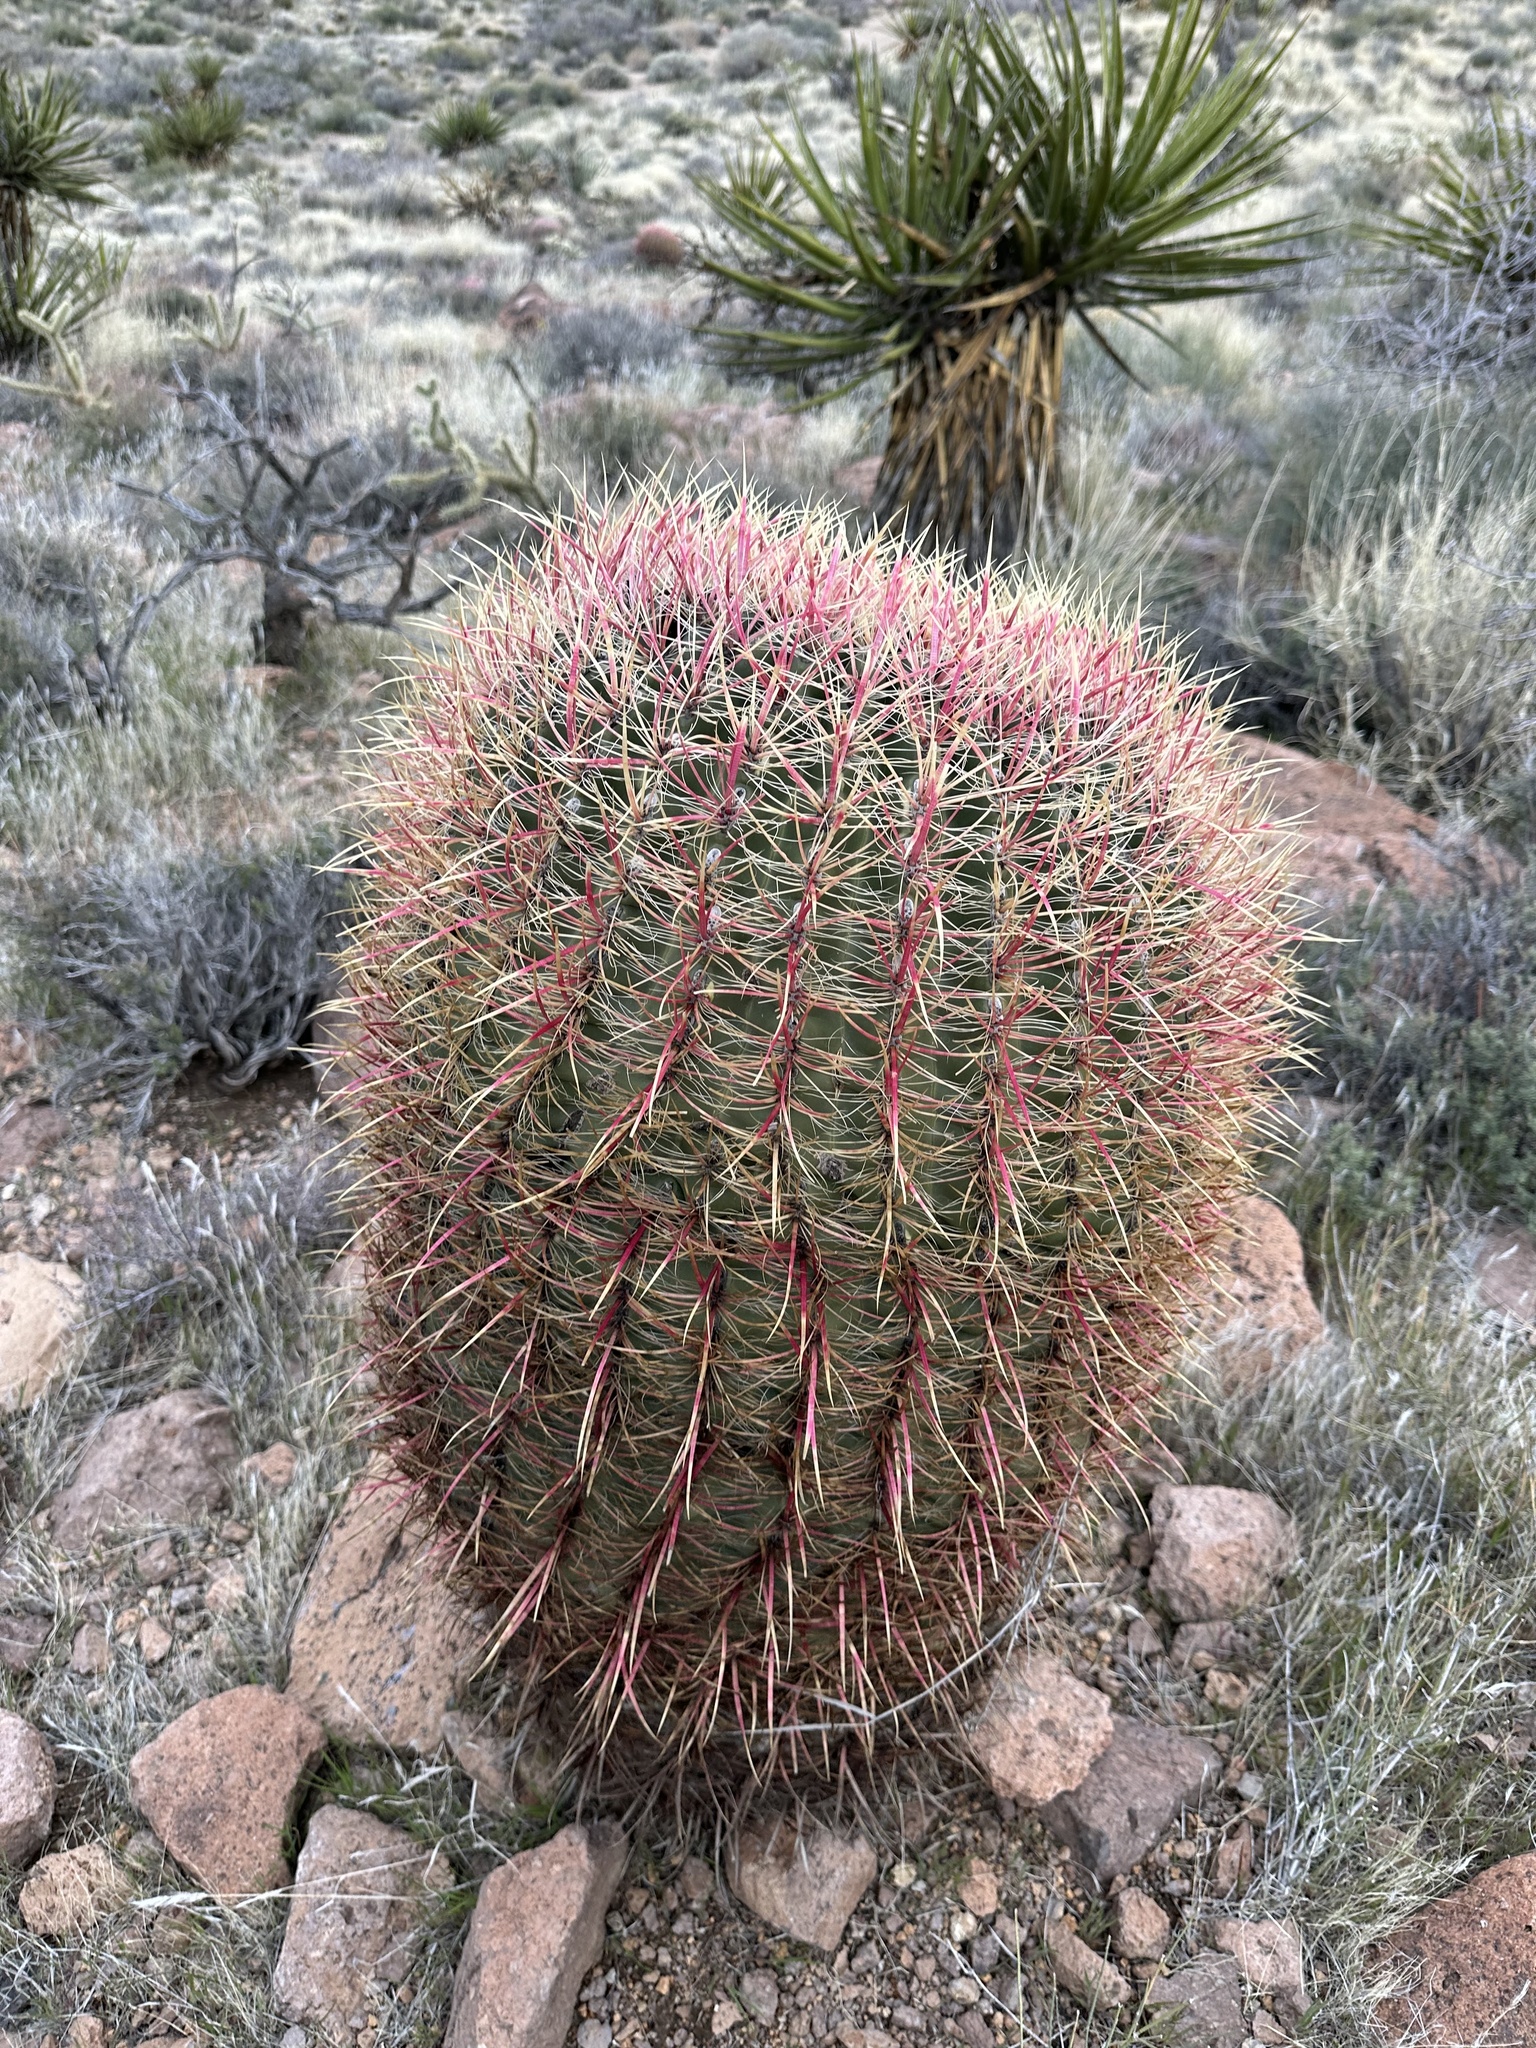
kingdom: Plantae
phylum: Tracheophyta
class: Magnoliopsida
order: Caryophyllales
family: Cactaceae
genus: Ferocactus
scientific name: Ferocactus cylindraceus
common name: California barrel cactus
